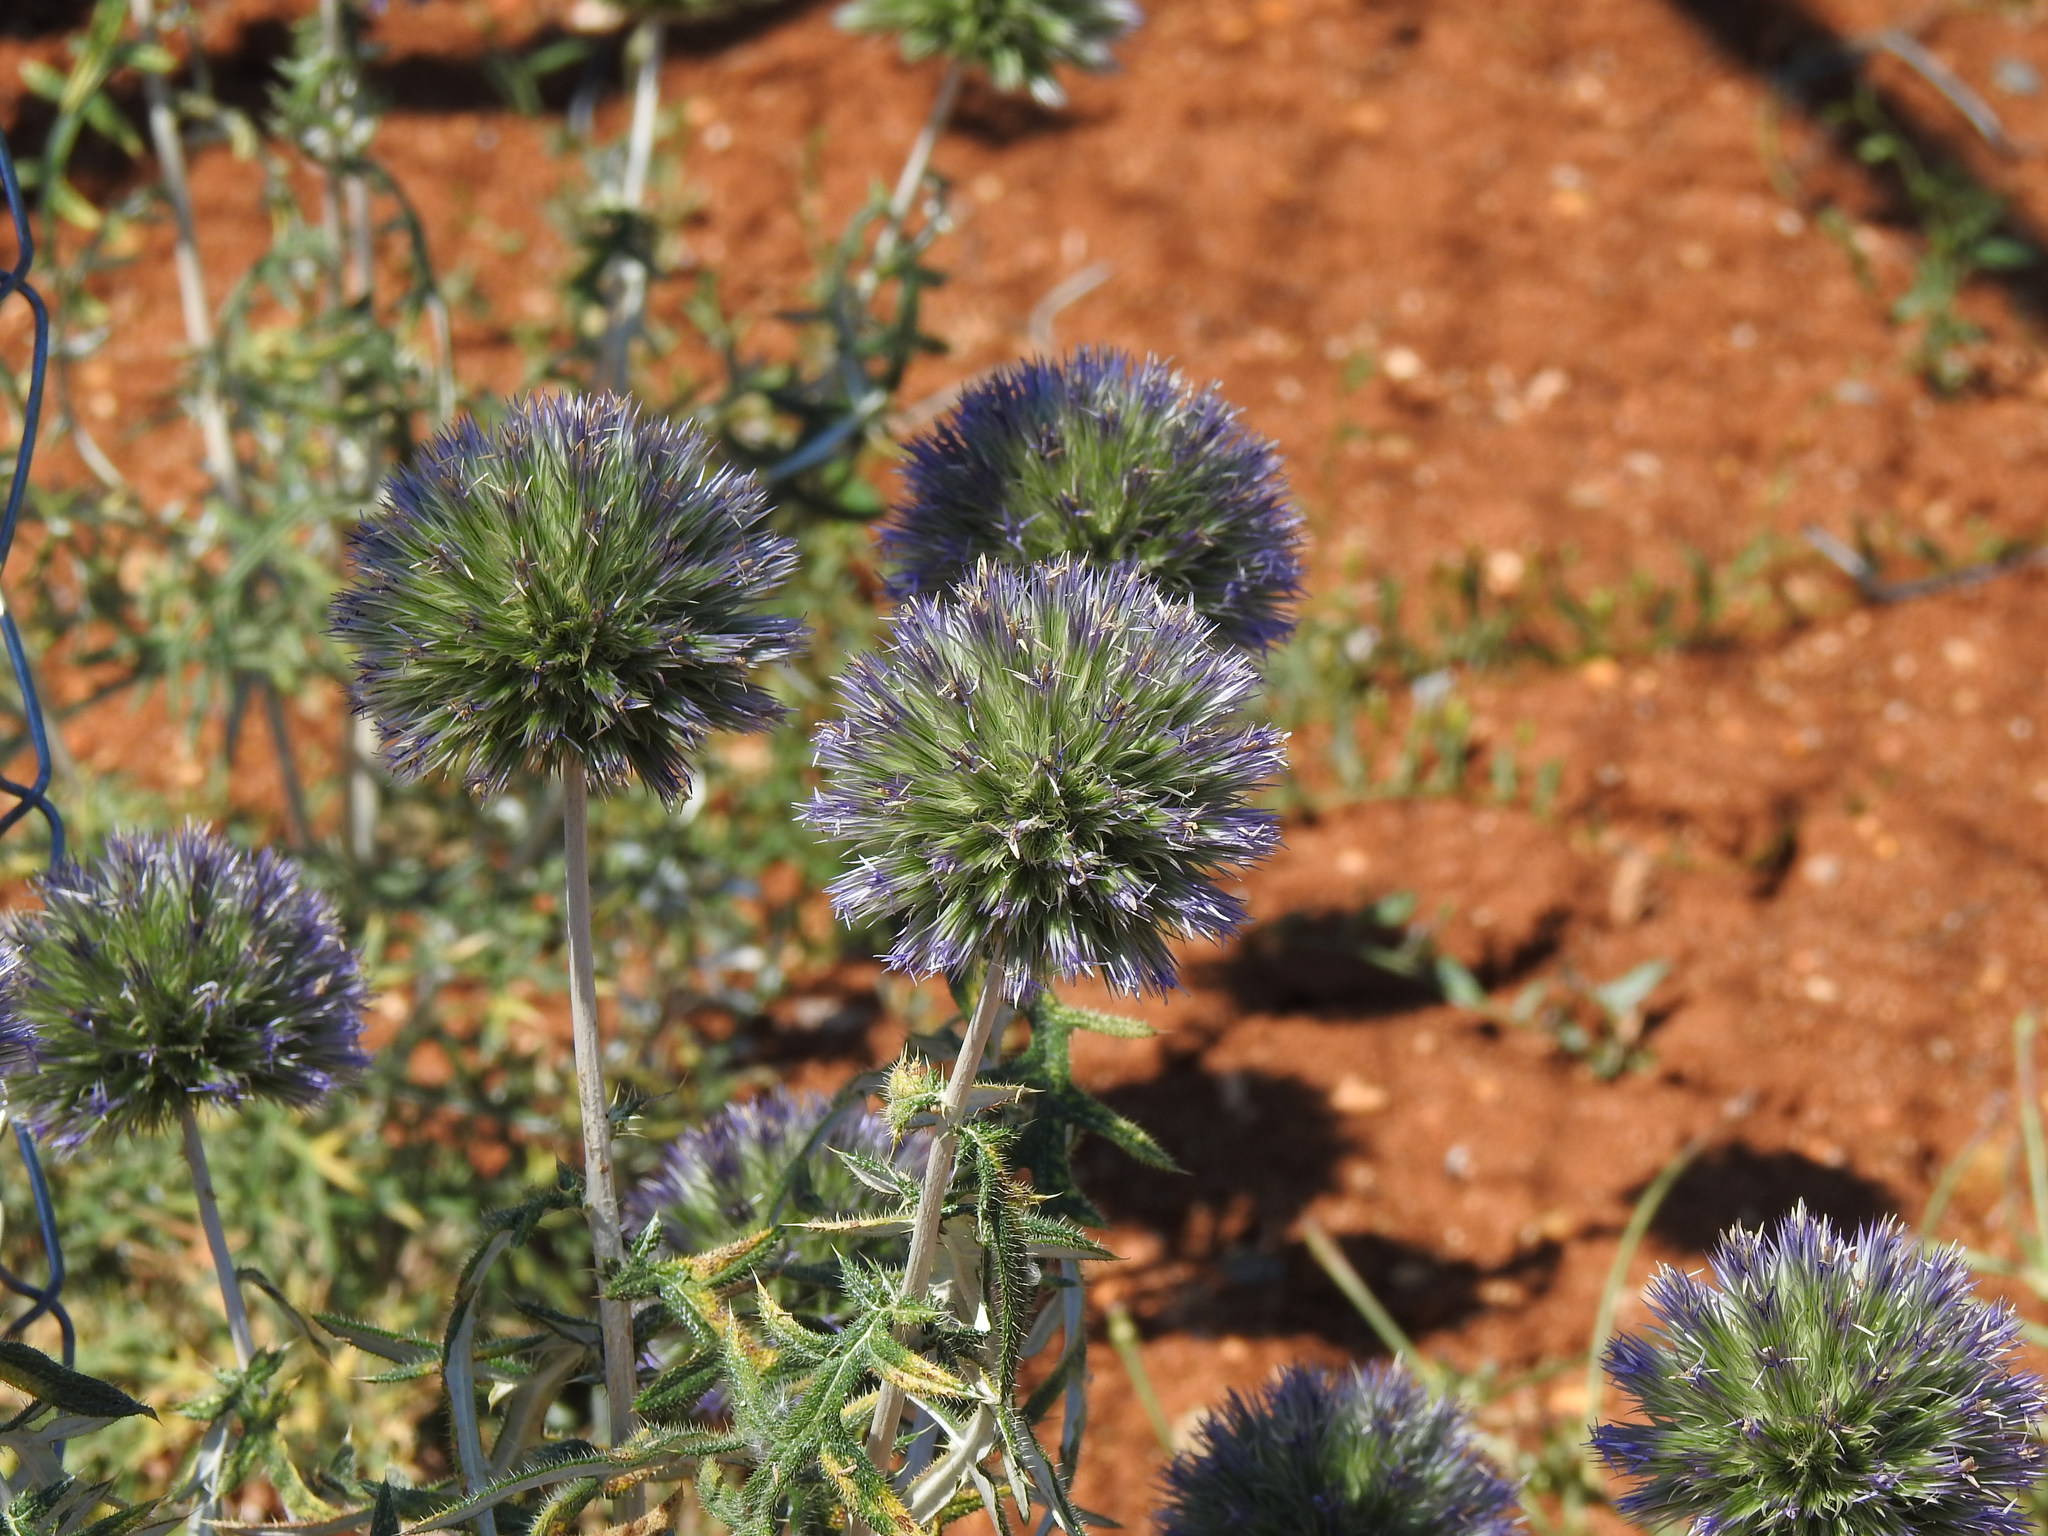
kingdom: Plantae
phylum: Tracheophyta
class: Magnoliopsida
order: Asterales
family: Asteraceae
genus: Echinops
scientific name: Echinops strigosus
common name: Rough-leaf globe thistle
